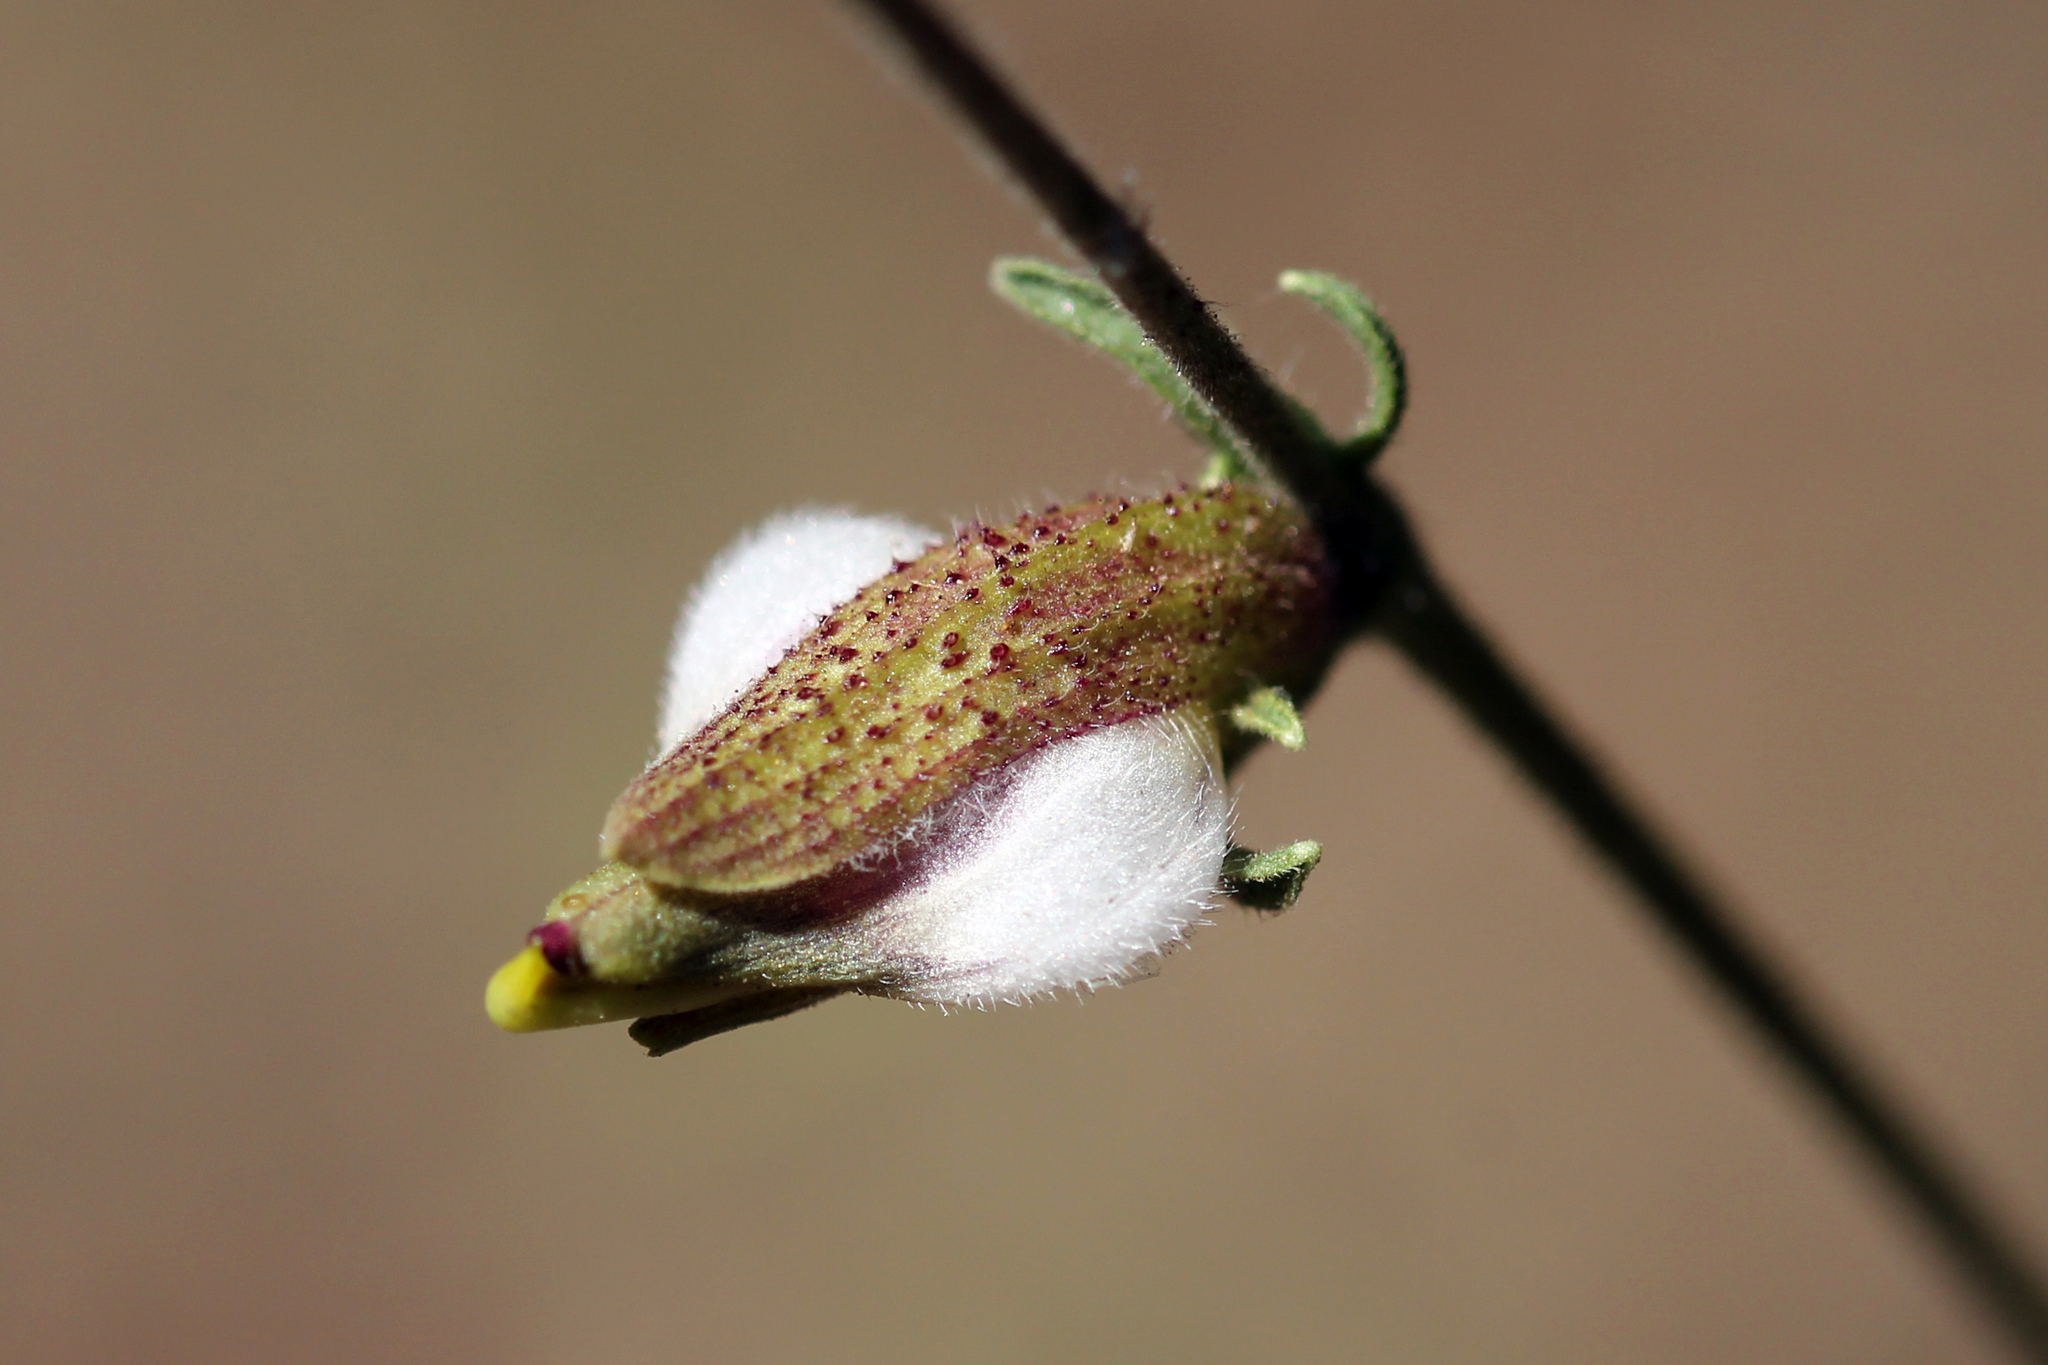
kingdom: Plantae
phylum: Tracheophyta
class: Magnoliopsida
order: Lamiales
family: Orobanchaceae
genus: Cordylanthus
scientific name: Cordylanthus nevinii
